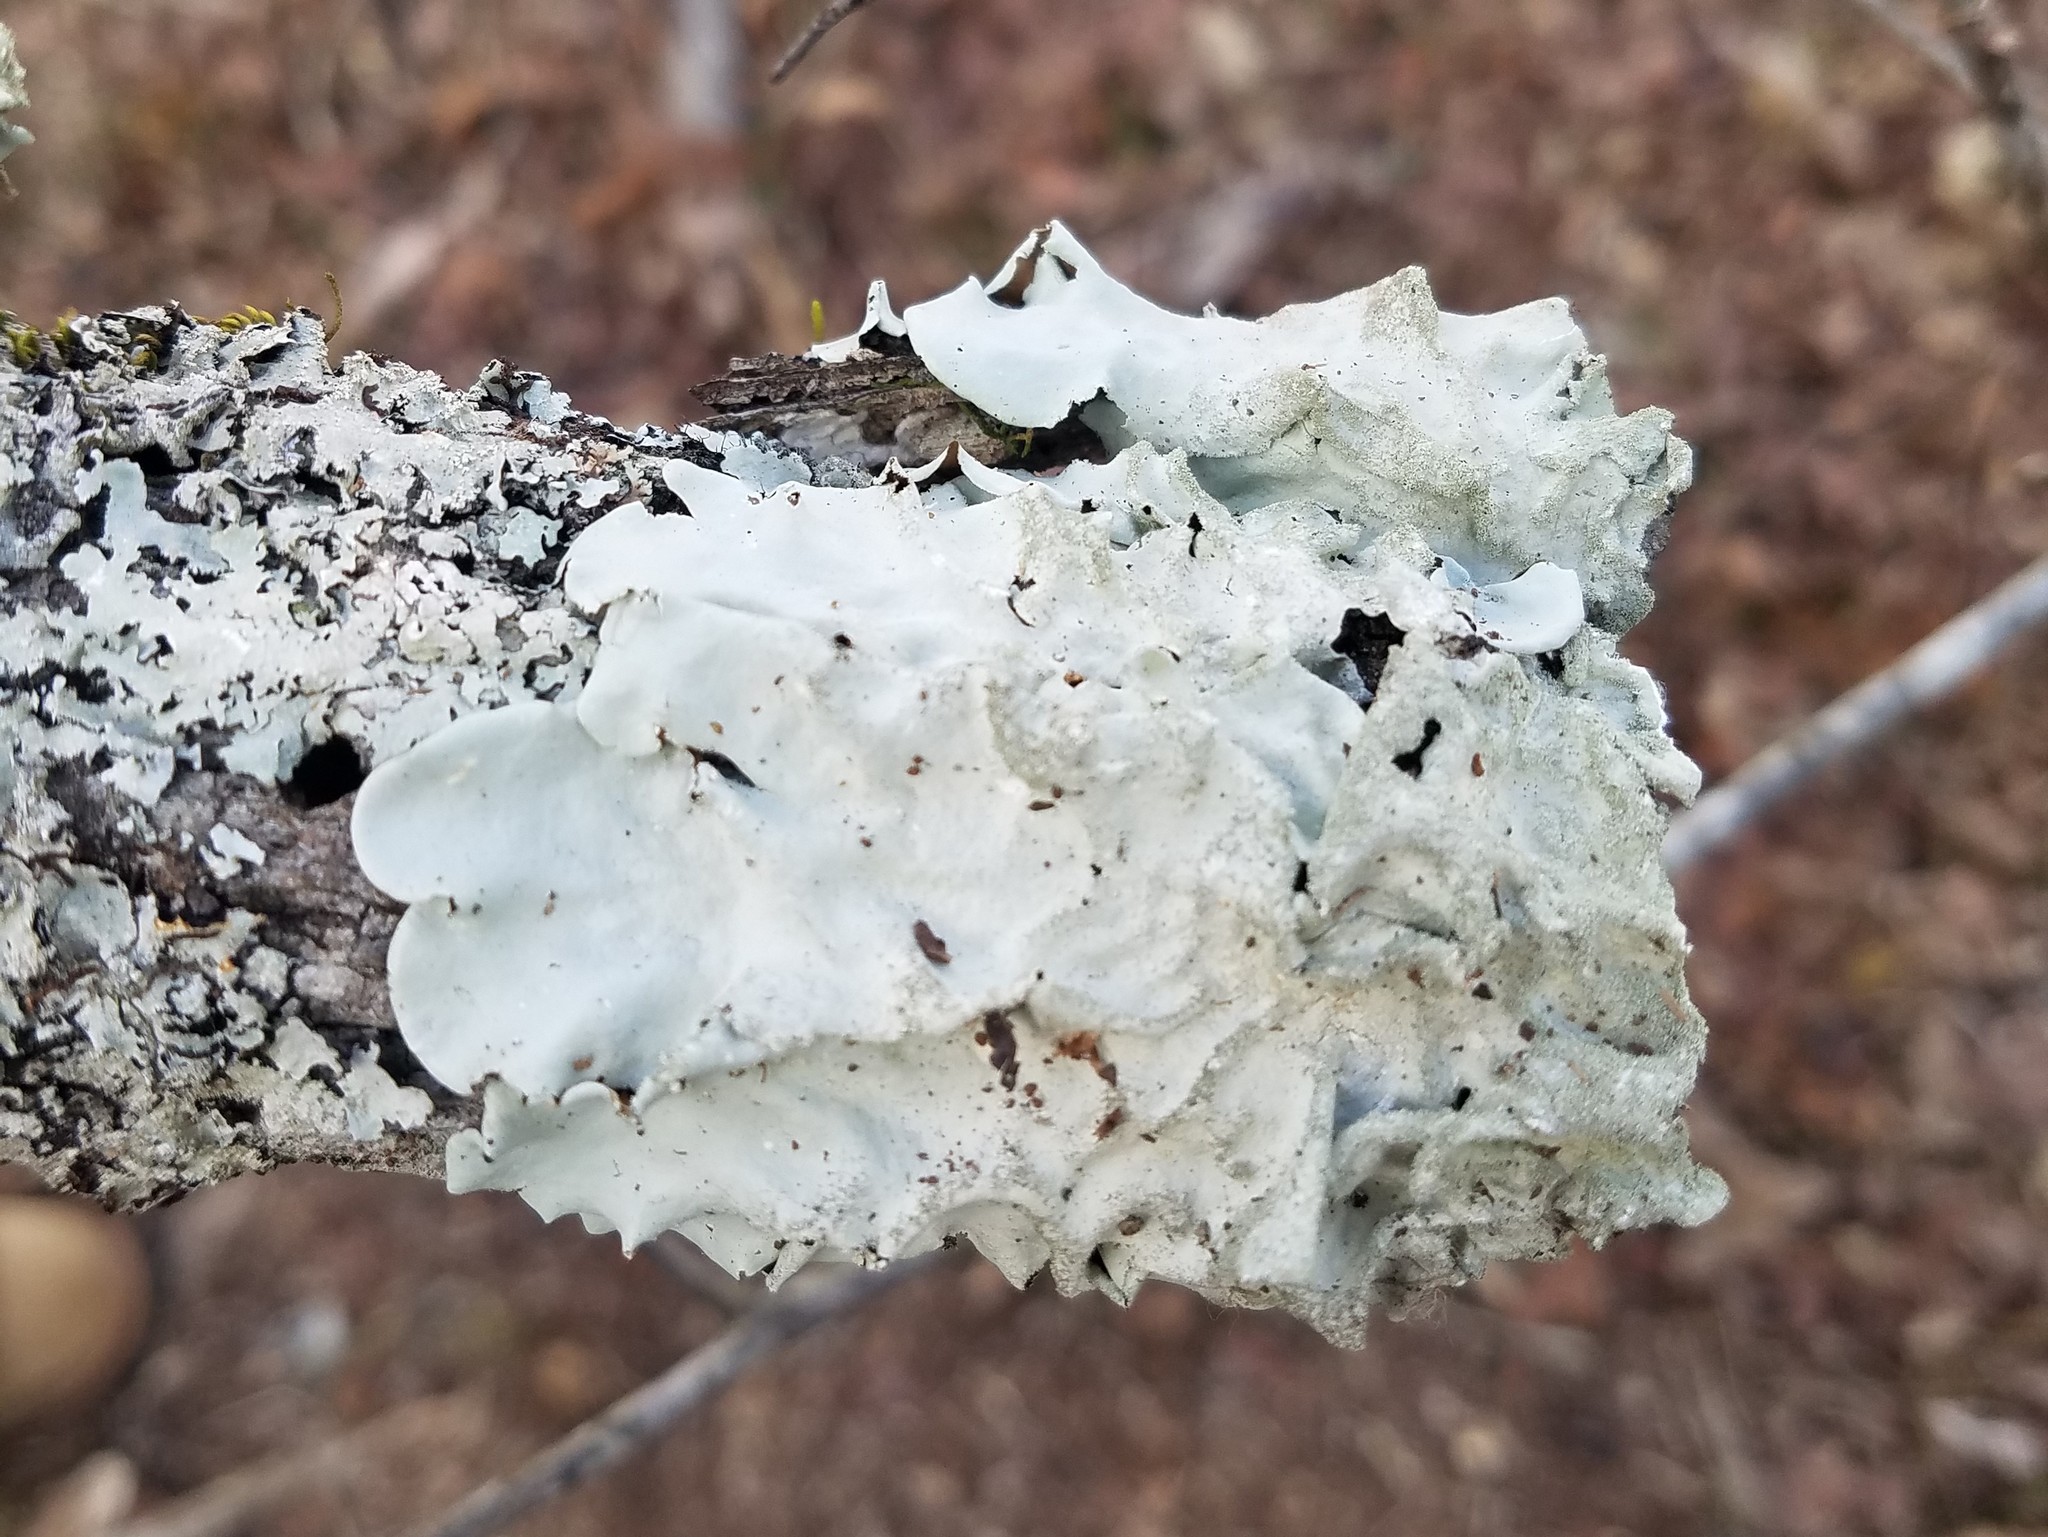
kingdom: Fungi
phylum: Ascomycota
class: Lecanoromycetes
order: Lecanorales
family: Parmeliaceae
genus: Parmotrema
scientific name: Parmotrema tinctorum
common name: Old gray ruffles
